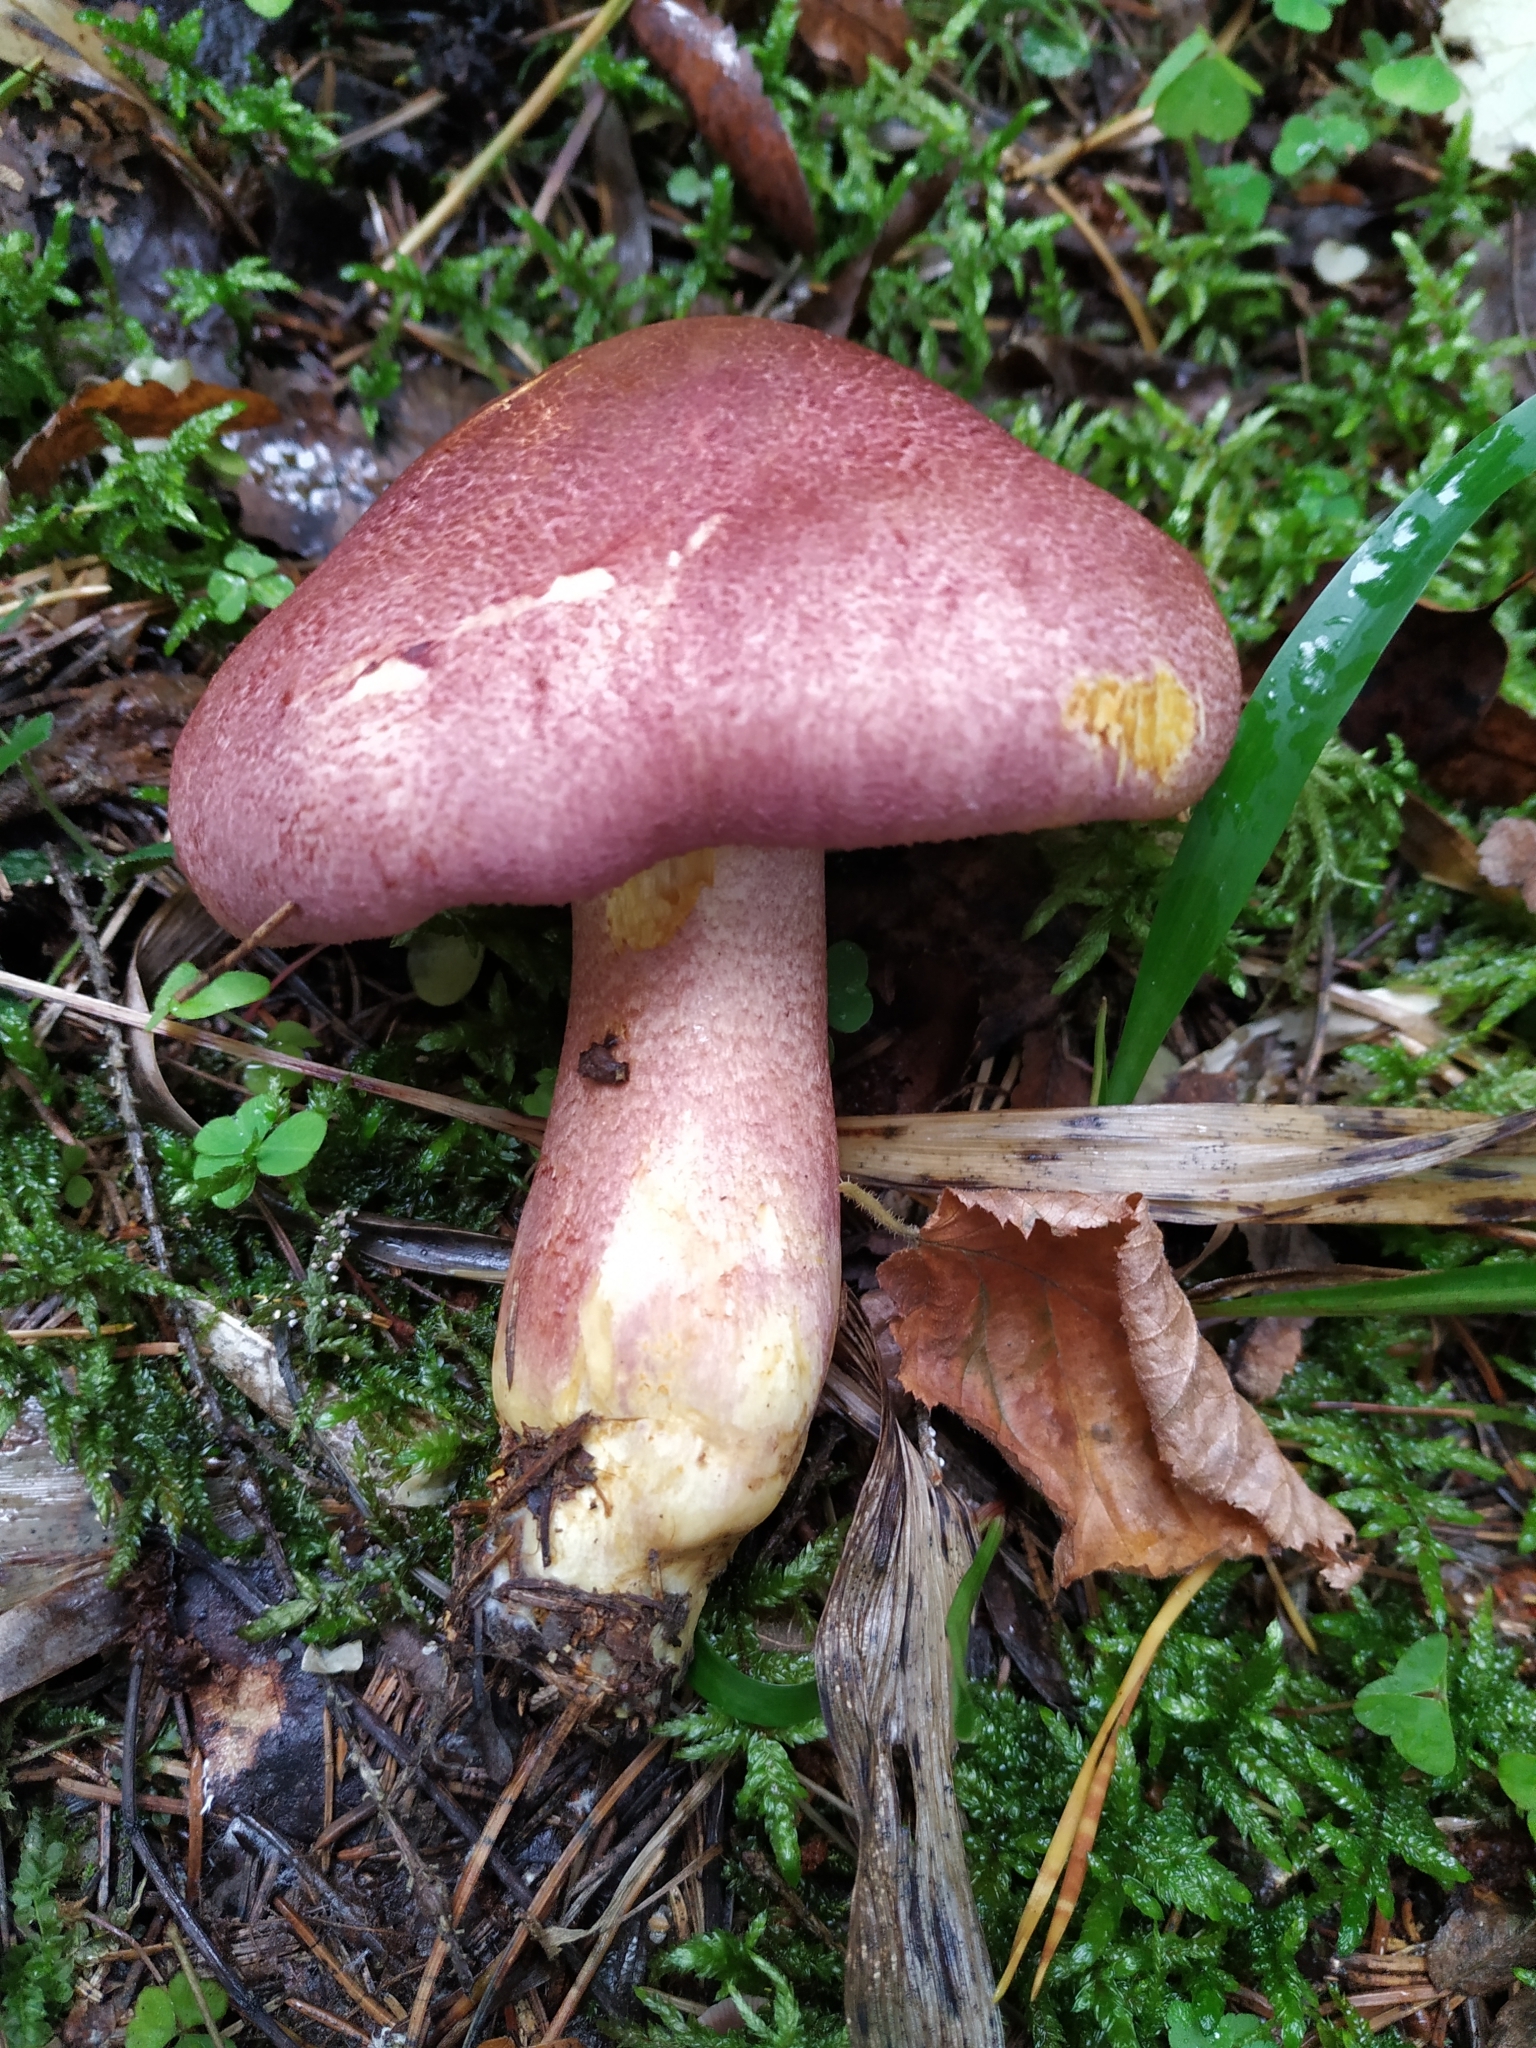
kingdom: Fungi
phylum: Basidiomycota
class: Agaricomycetes
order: Agaricales
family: Tricholomataceae
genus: Tricholomopsis
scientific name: Tricholomopsis rutilans
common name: Plums and custard
